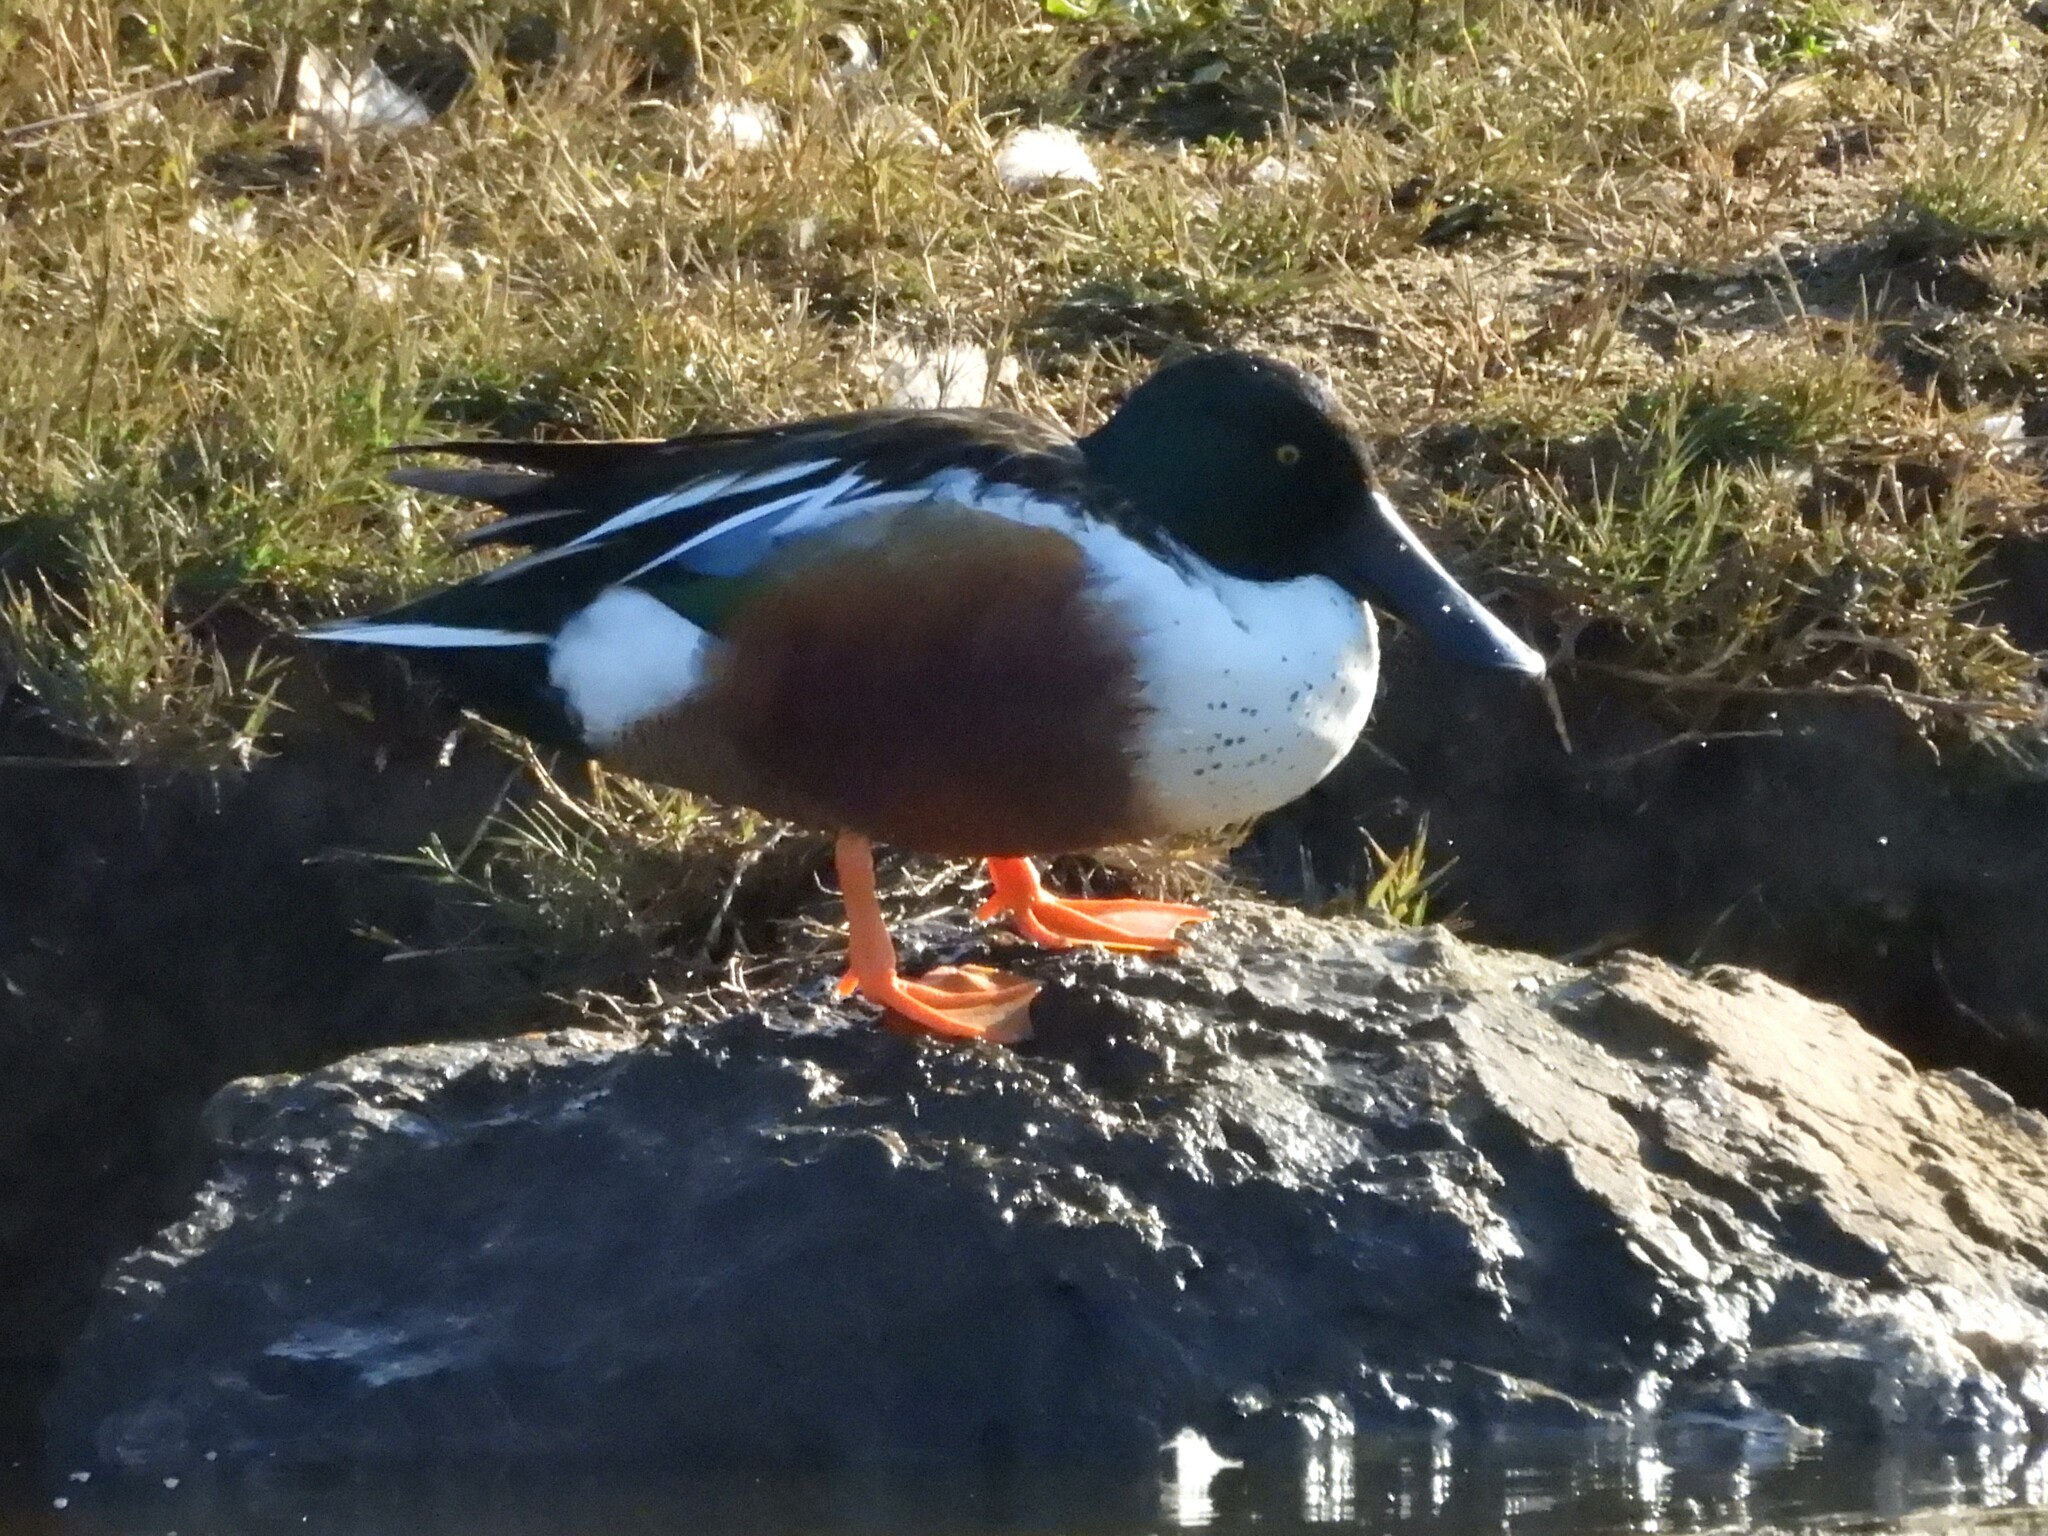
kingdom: Animalia
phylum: Chordata
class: Aves
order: Anseriformes
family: Anatidae
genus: Spatula
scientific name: Spatula clypeata
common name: Northern shoveler
